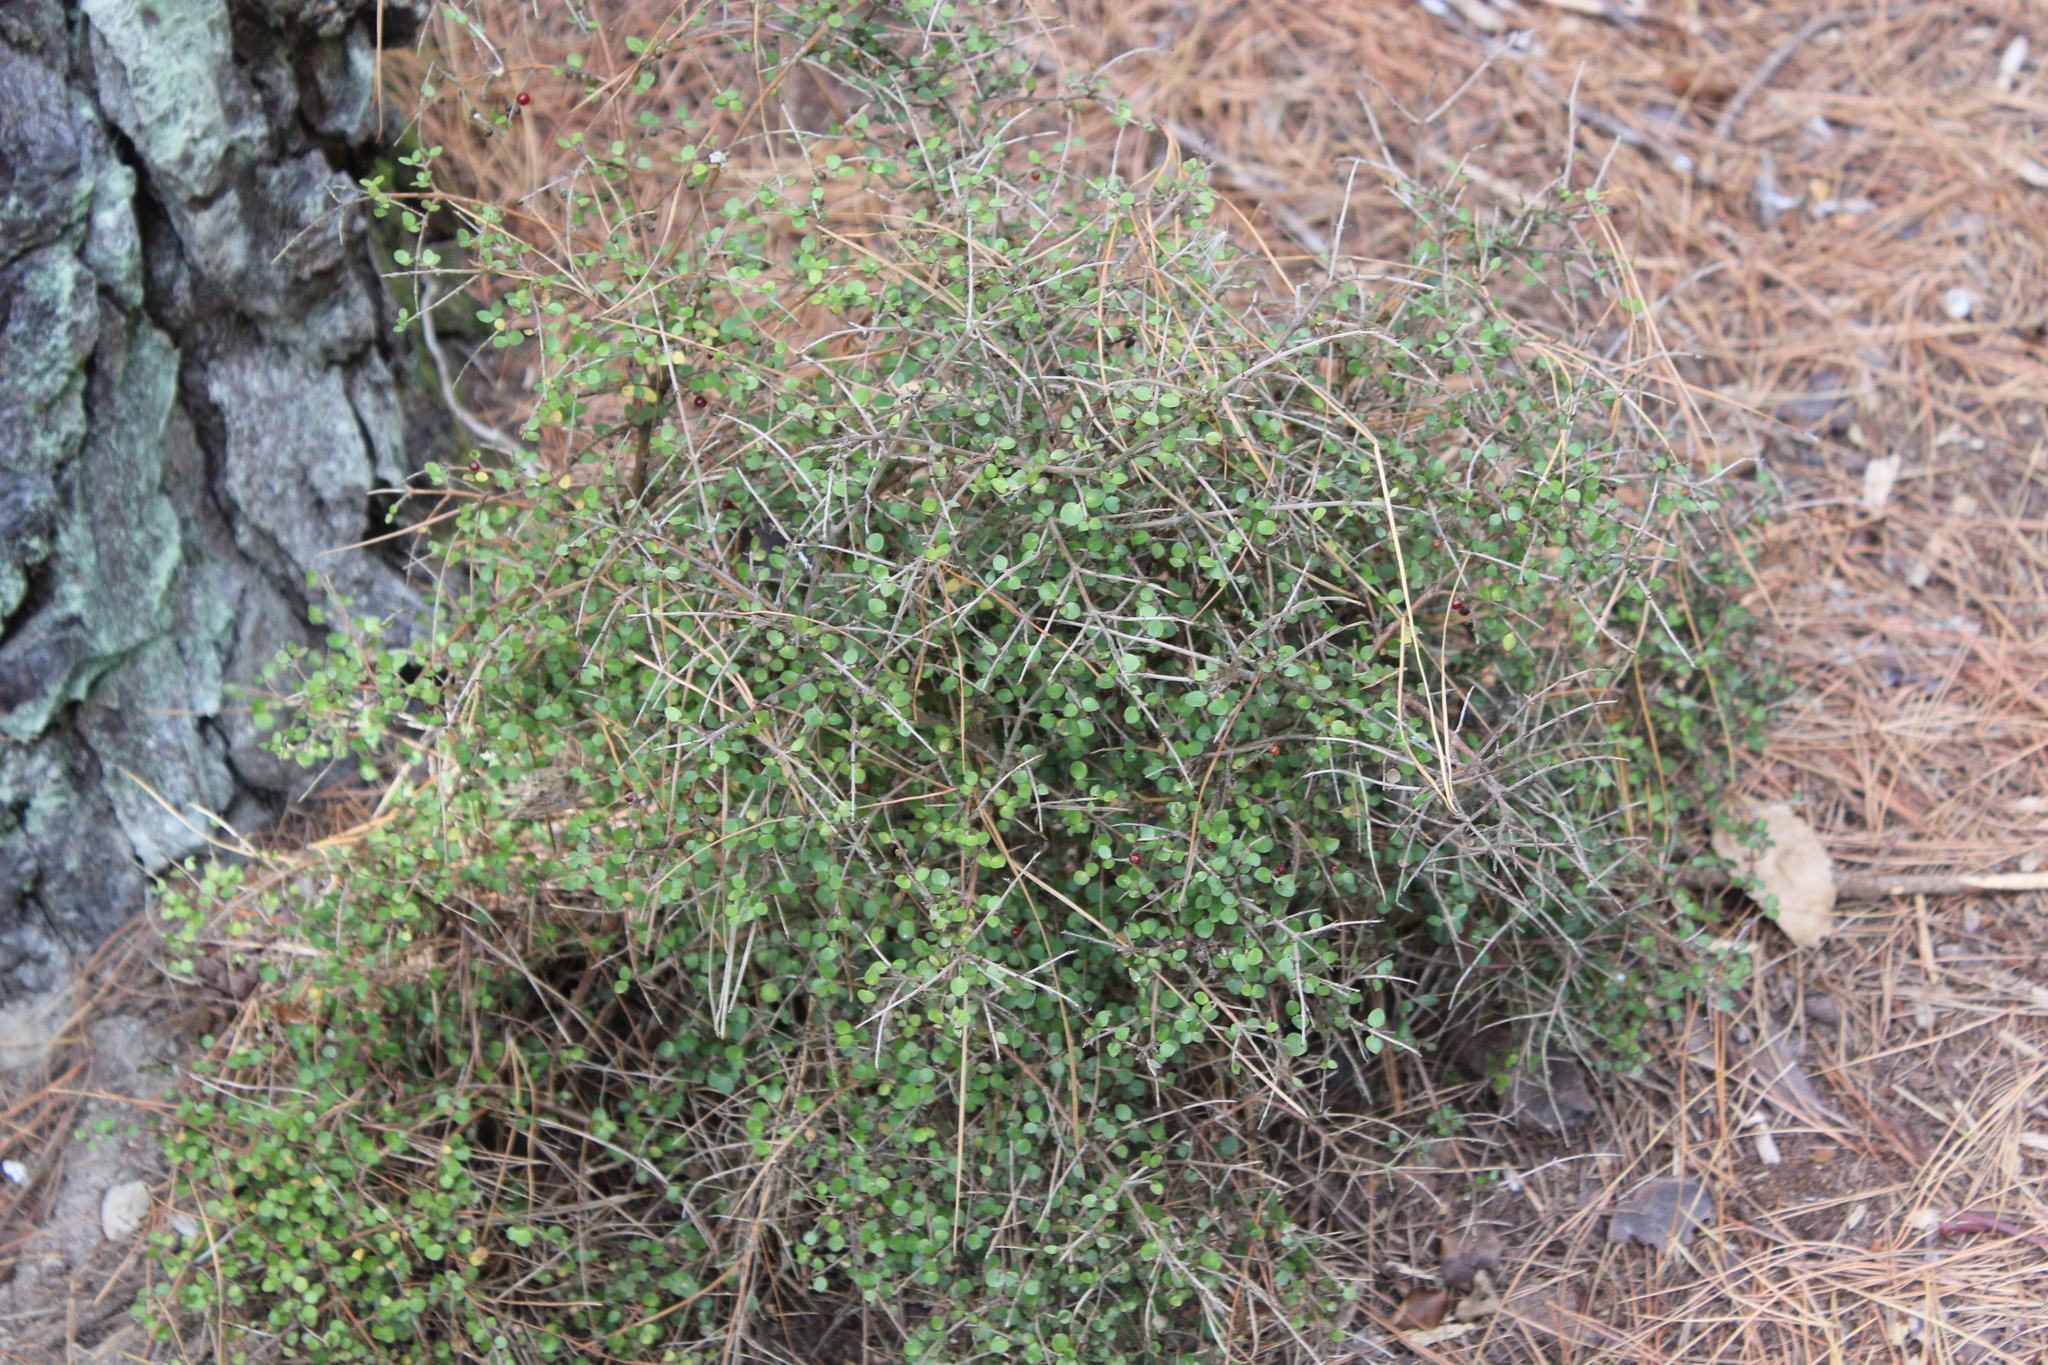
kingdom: Plantae
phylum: Tracheophyta
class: Magnoliopsida
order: Gentianales
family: Rubiaceae
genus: Coprosma
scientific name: Coprosma rhamnoides
